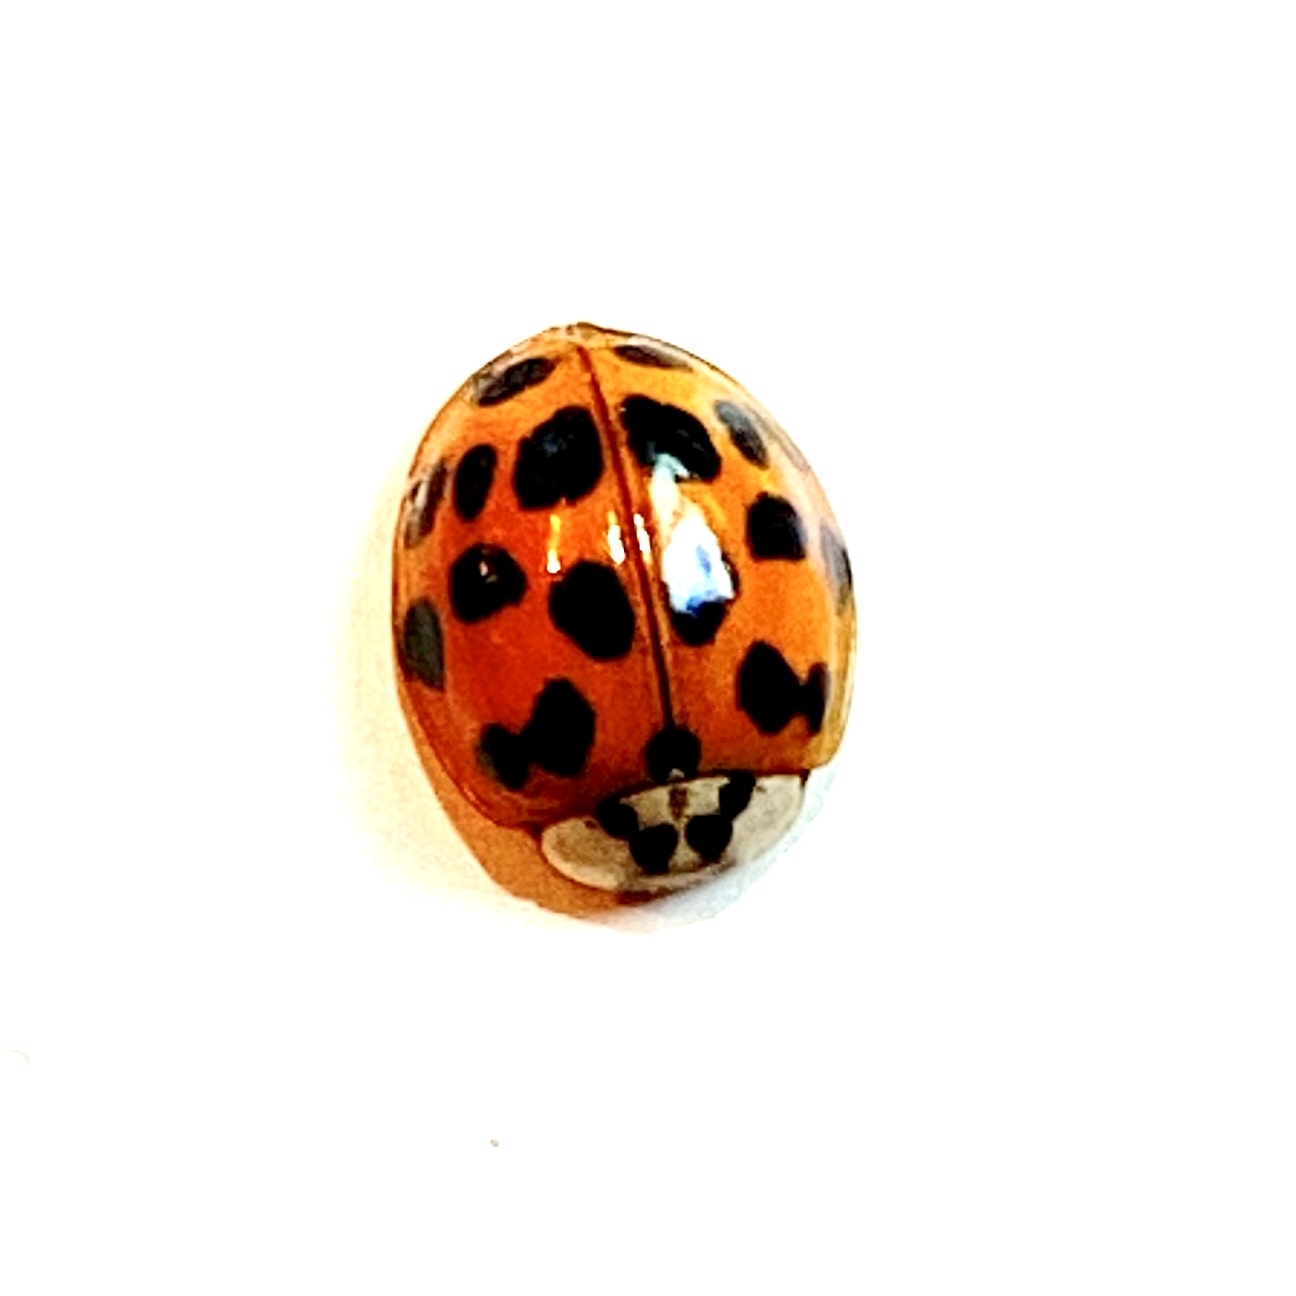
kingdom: Animalia
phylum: Arthropoda
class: Insecta
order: Coleoptera
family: Coccinellidae
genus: Harmonia
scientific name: Harmonia axyridis
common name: Harlequin ladybird
